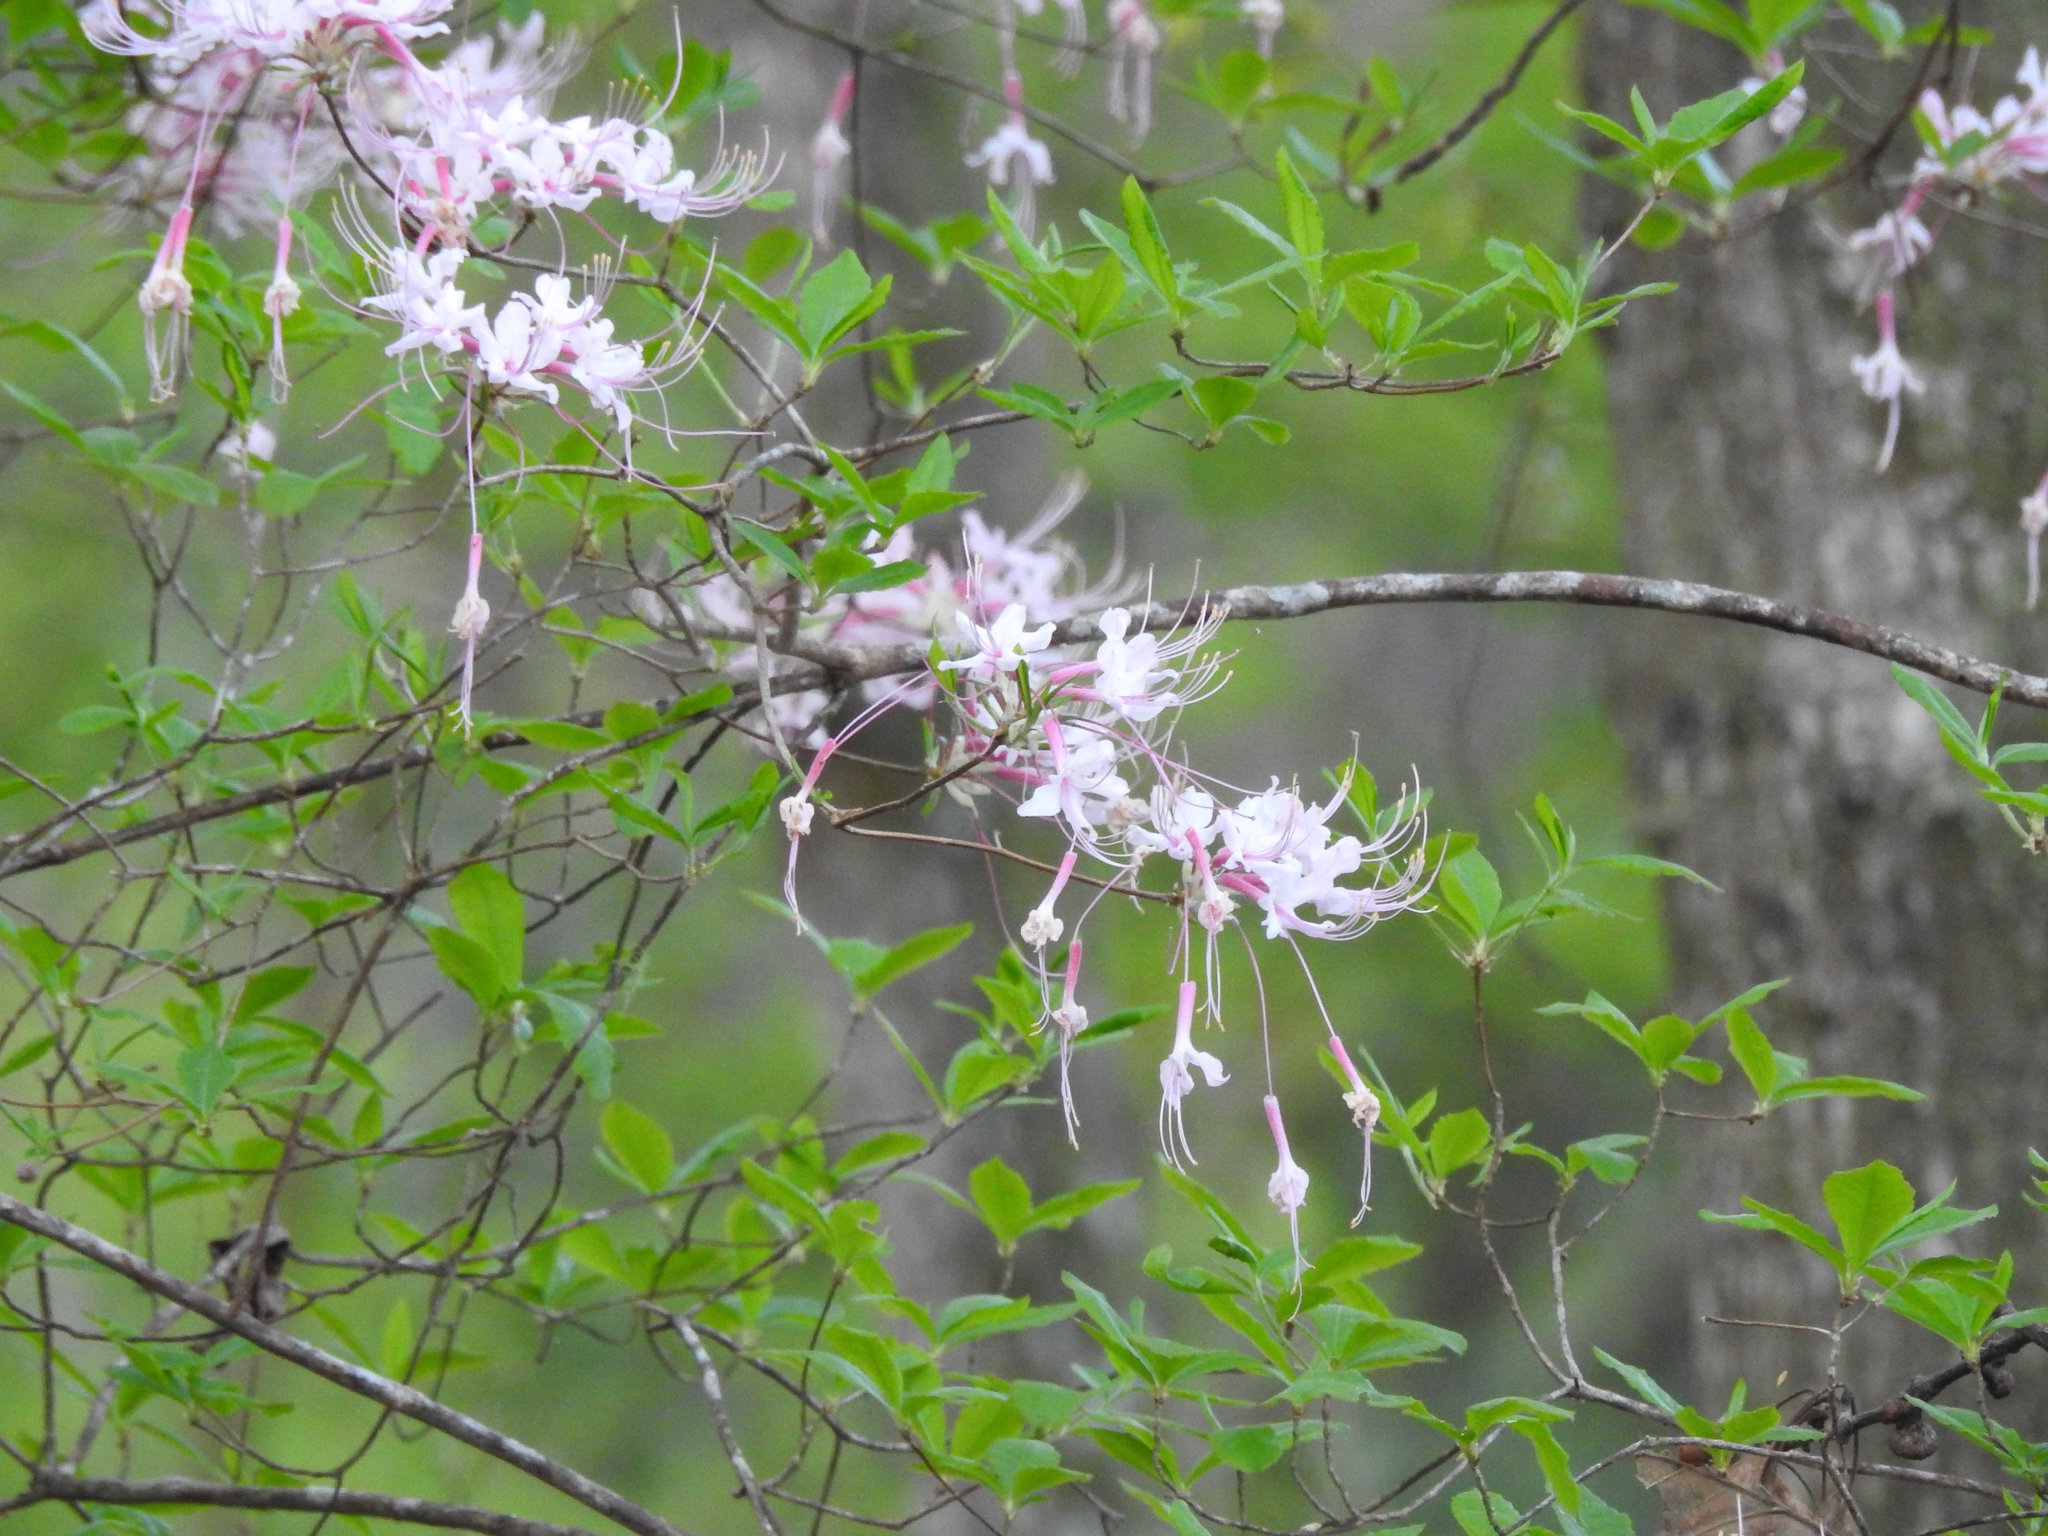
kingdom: Plantae
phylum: Tracheophyta
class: Magnoliopsida
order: Ericales
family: Ericaceae
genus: Rhododendron
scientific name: Rhododendron canescens
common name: Mountain azalea
